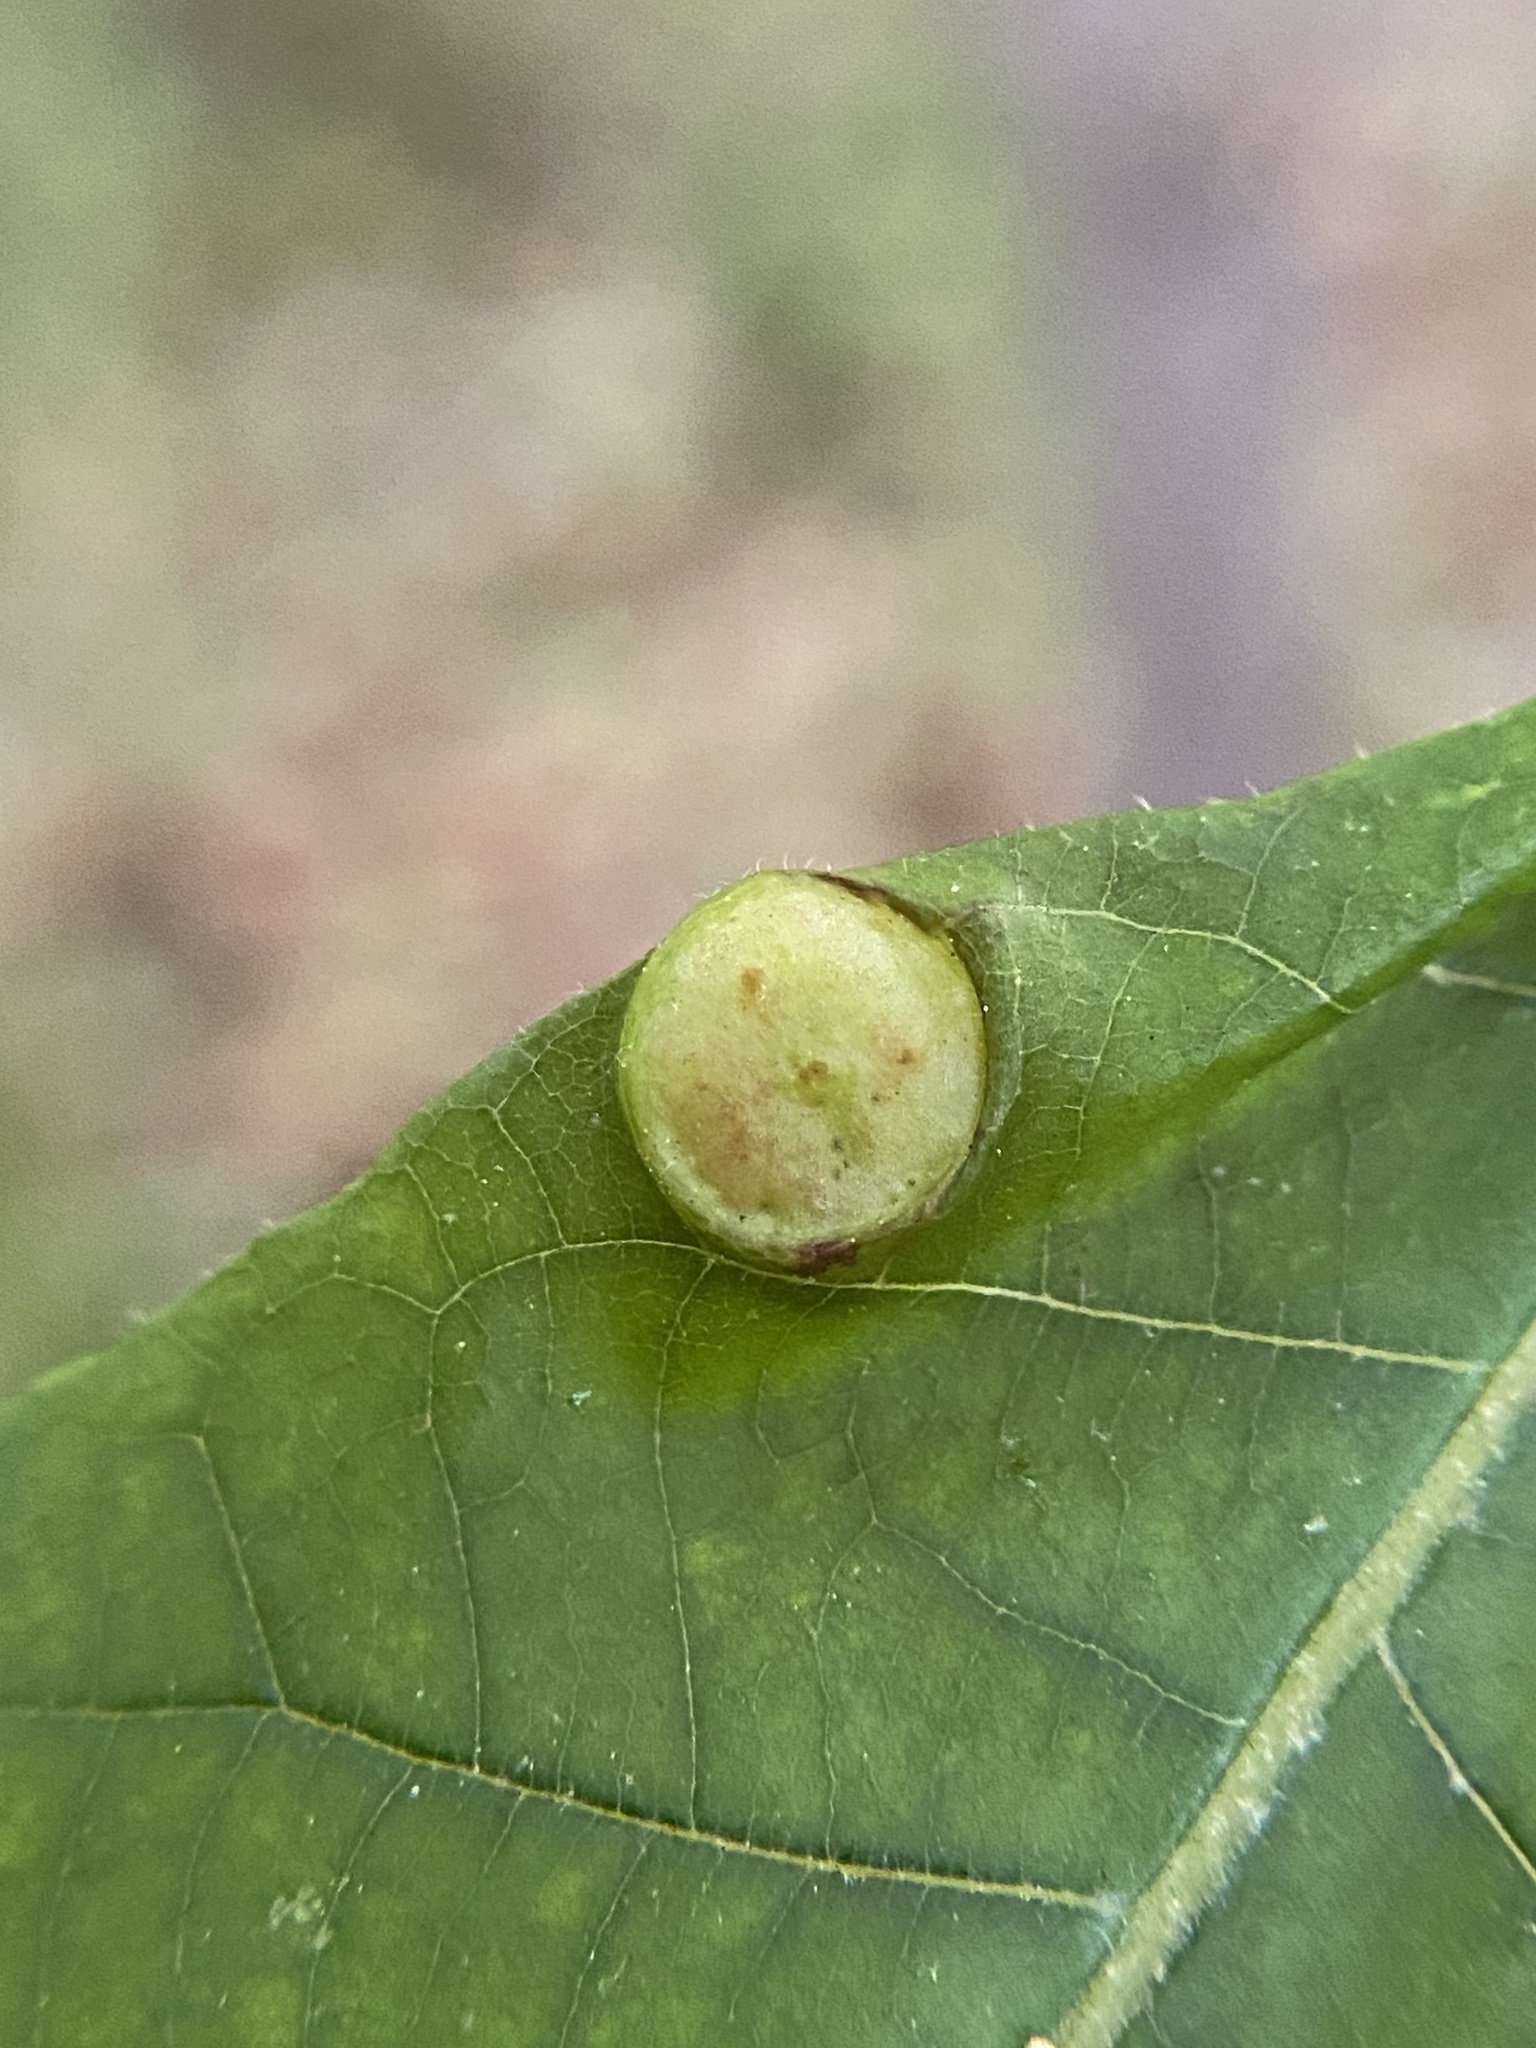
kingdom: Animalia
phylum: Arthropoda
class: Insecta
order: Hemiptera
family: Phylloxeridae
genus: Phylloxera
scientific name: Phylloxera caryae-avellana
